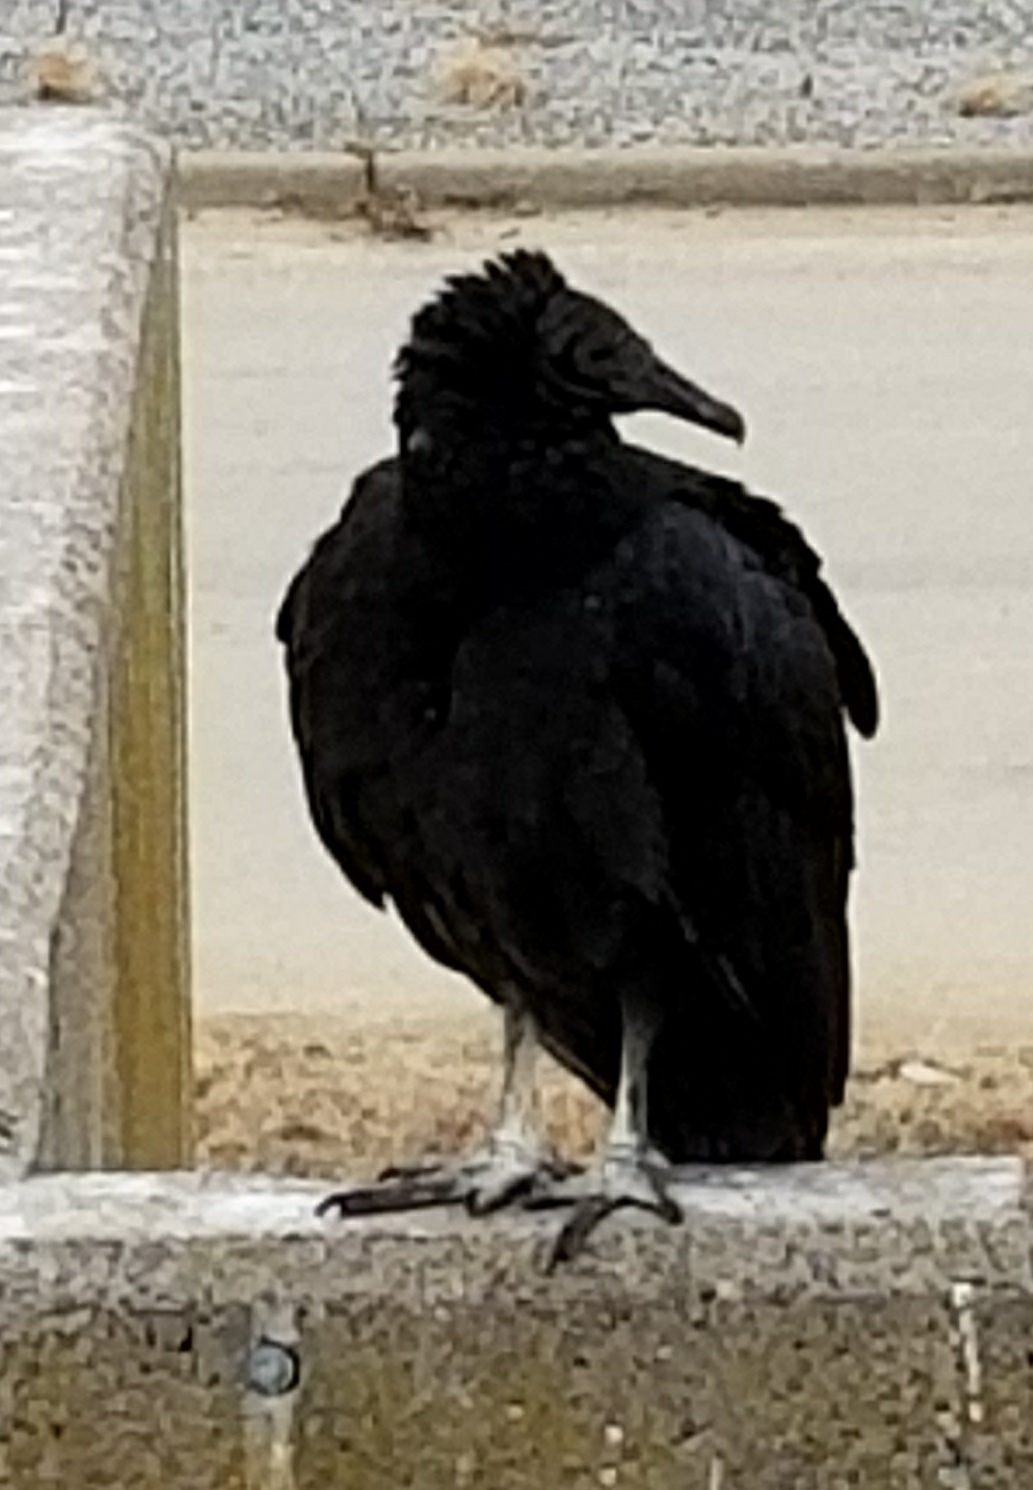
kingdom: Animalia
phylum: Chordata
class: Aves
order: Accipitriformes
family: Cathartidae
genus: Coragyps
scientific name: Coragyps atratus
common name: Black vulture
